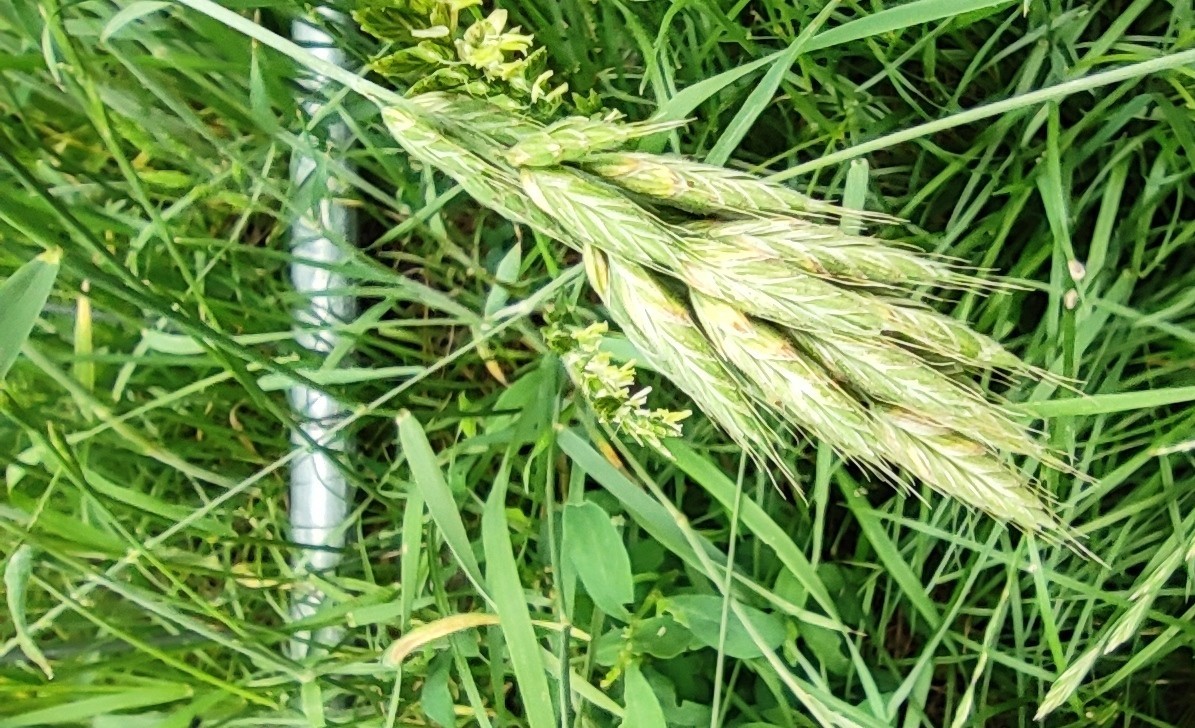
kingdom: Plantae
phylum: Tracheophyta
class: Liliopsida
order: Poales
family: Poaceae
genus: Bromus
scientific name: Bromus hordeaceus
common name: Soft brome
